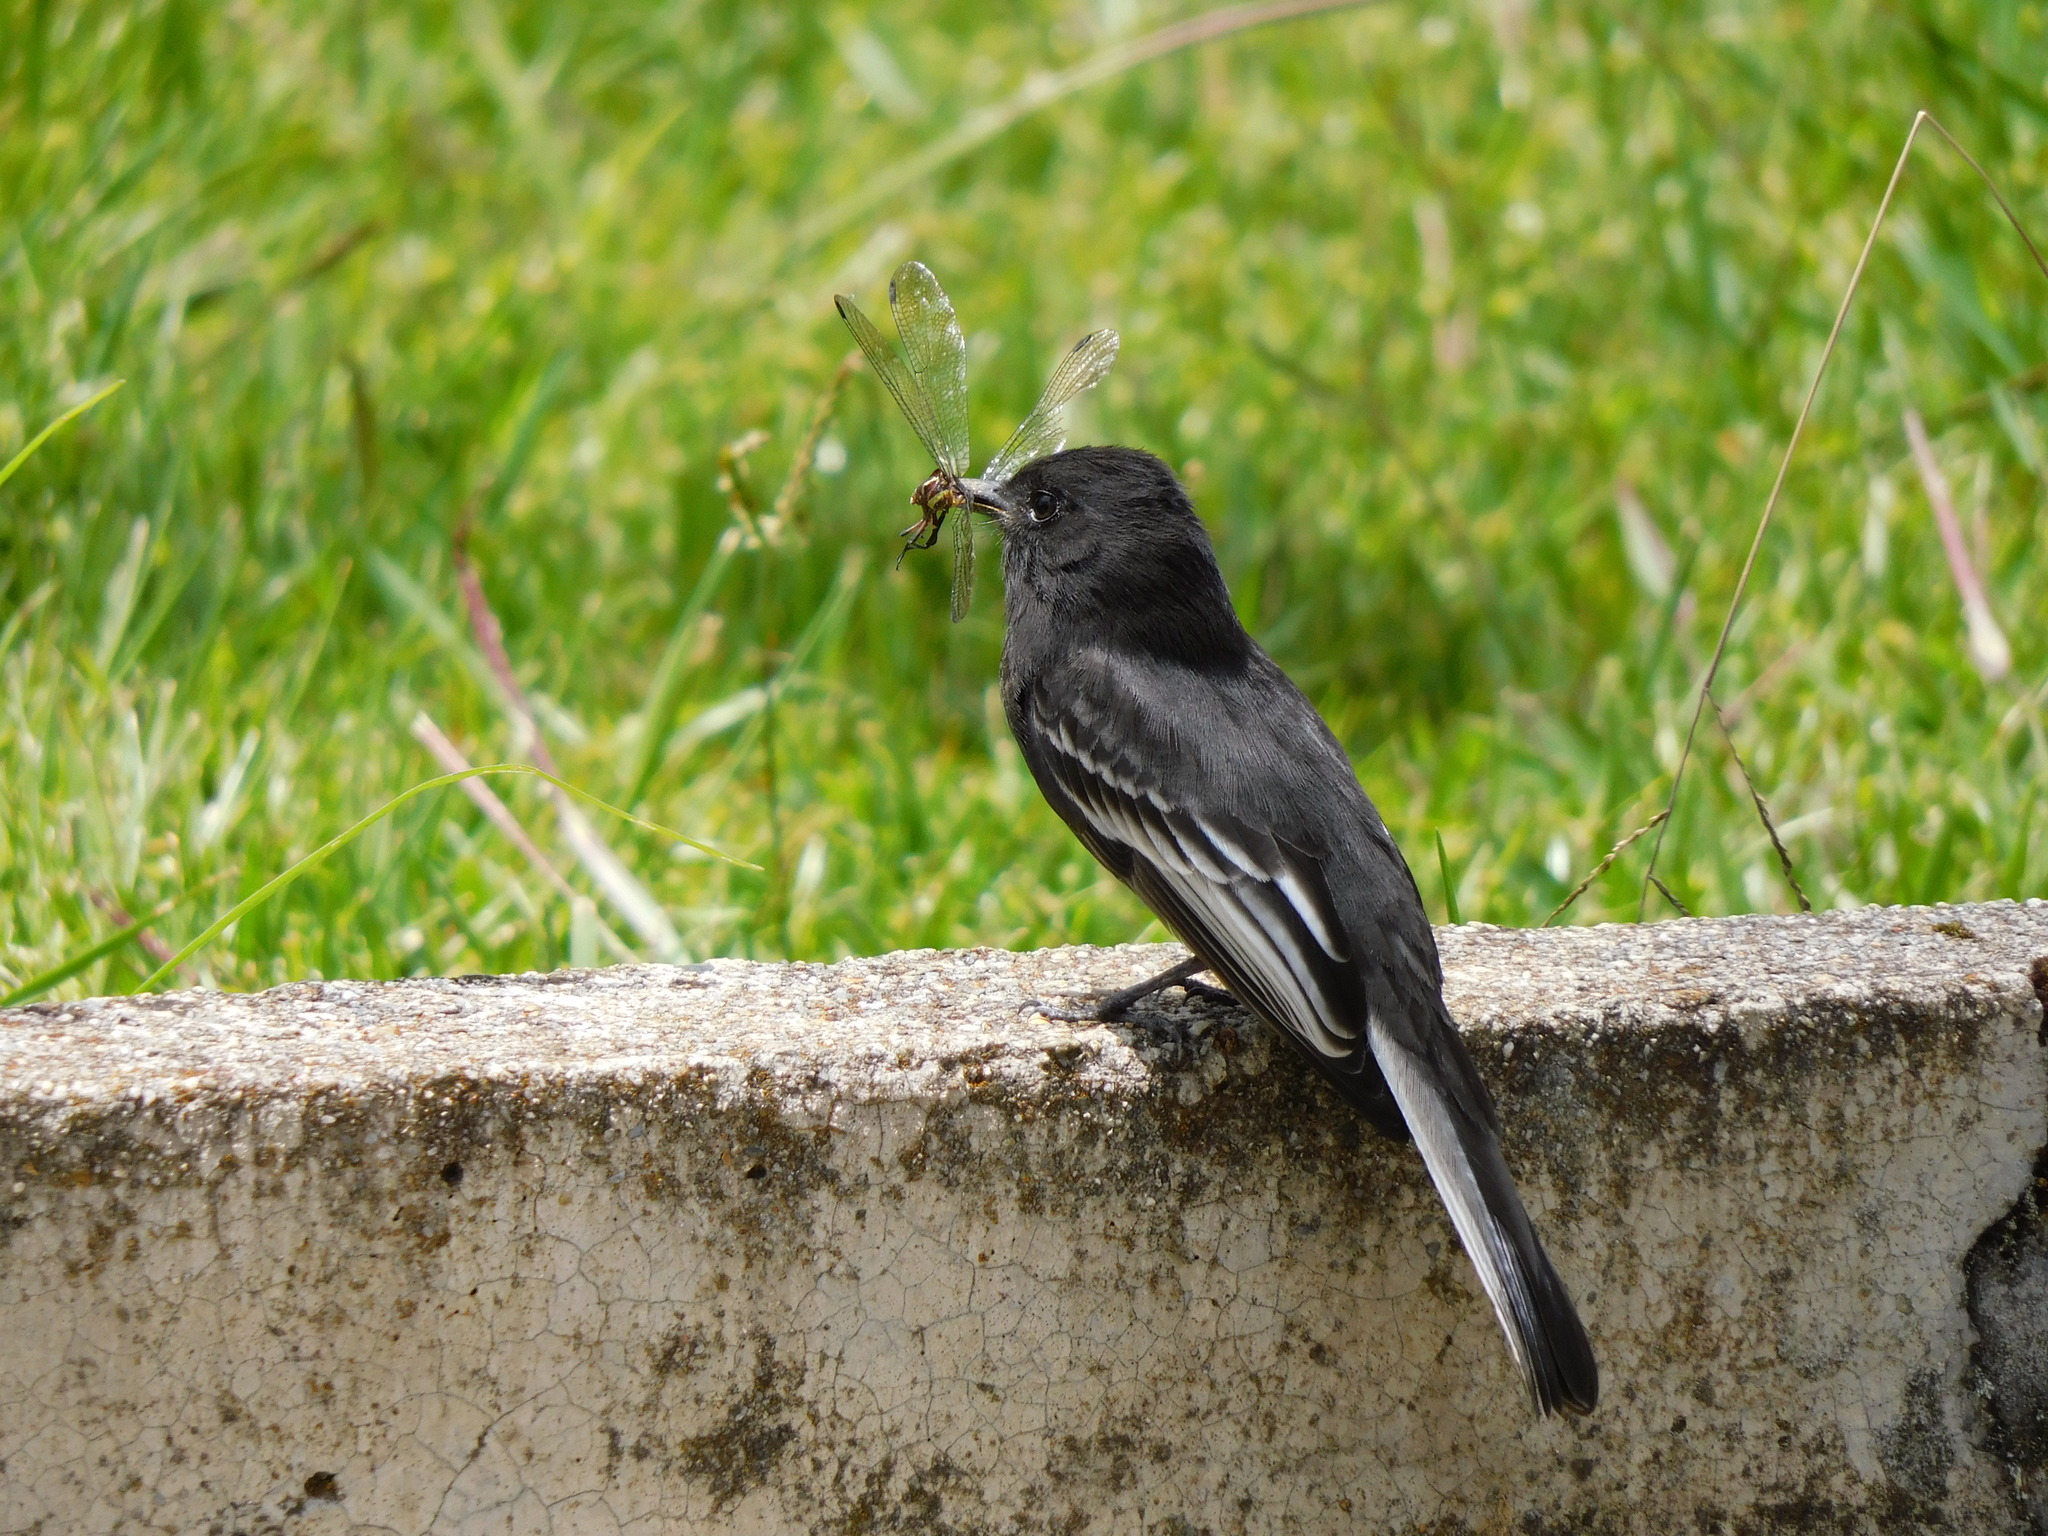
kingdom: Animalia
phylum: Chordata
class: Aves
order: Passeriformes
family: Tyrannidae
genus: Sayornis
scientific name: Sayornis nigricans
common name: Black phoebe
